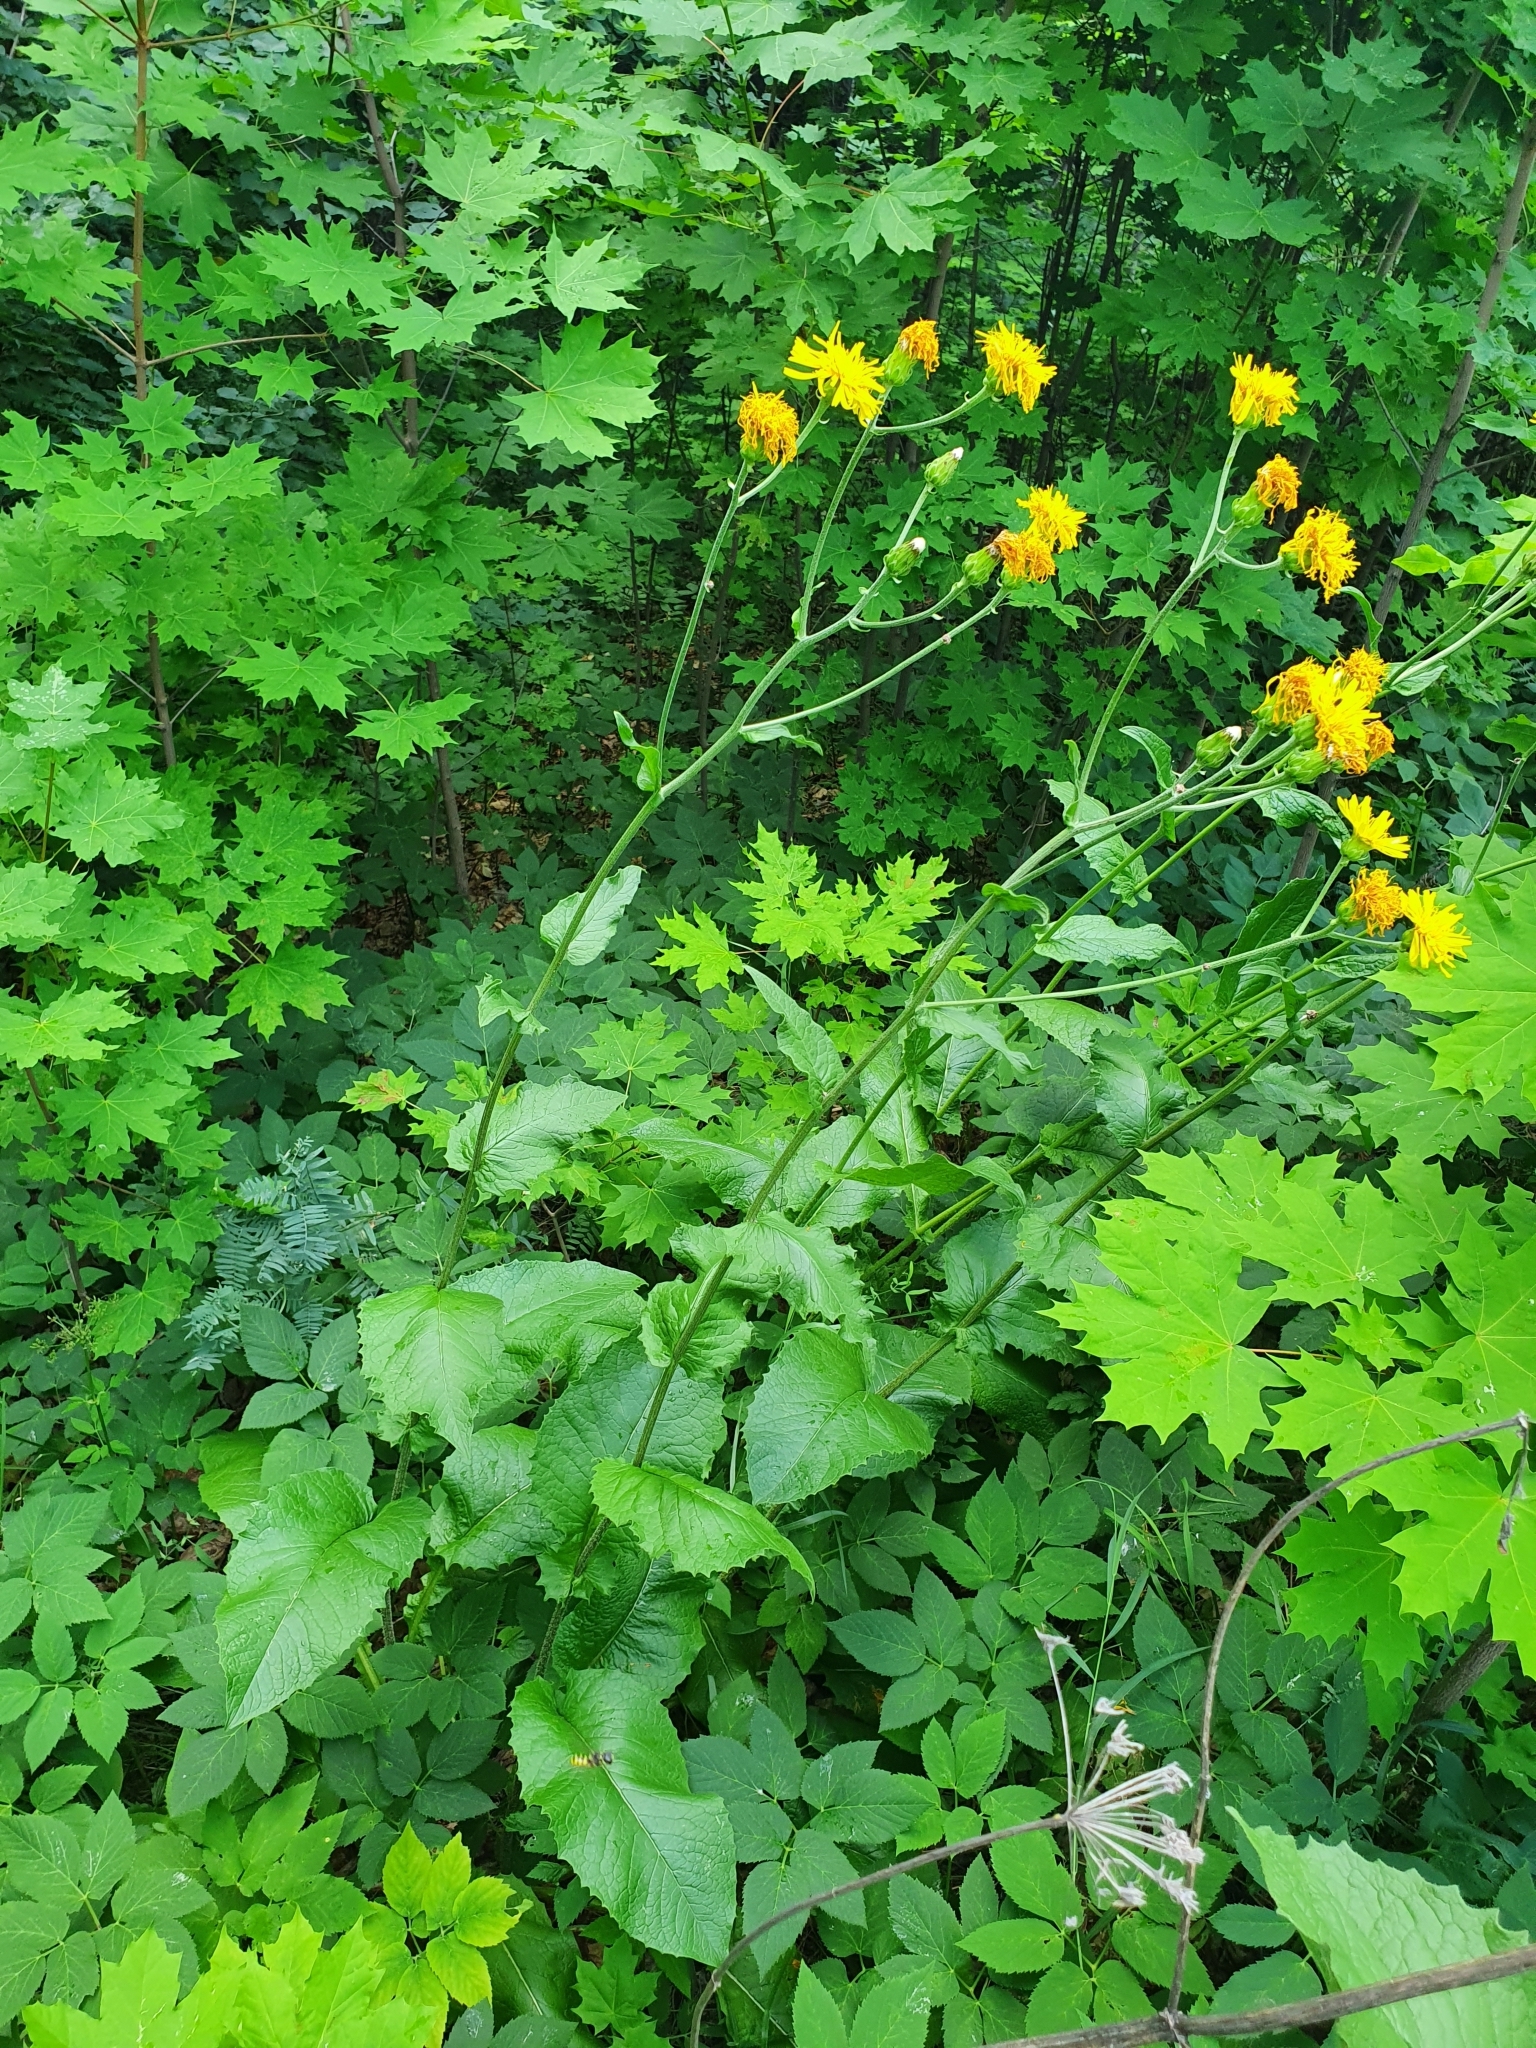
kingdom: Plantae
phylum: Tracheophyta
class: Magnoliopsida
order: Asterales
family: Asteraceae
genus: Crepis
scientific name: Crepis sibirica
